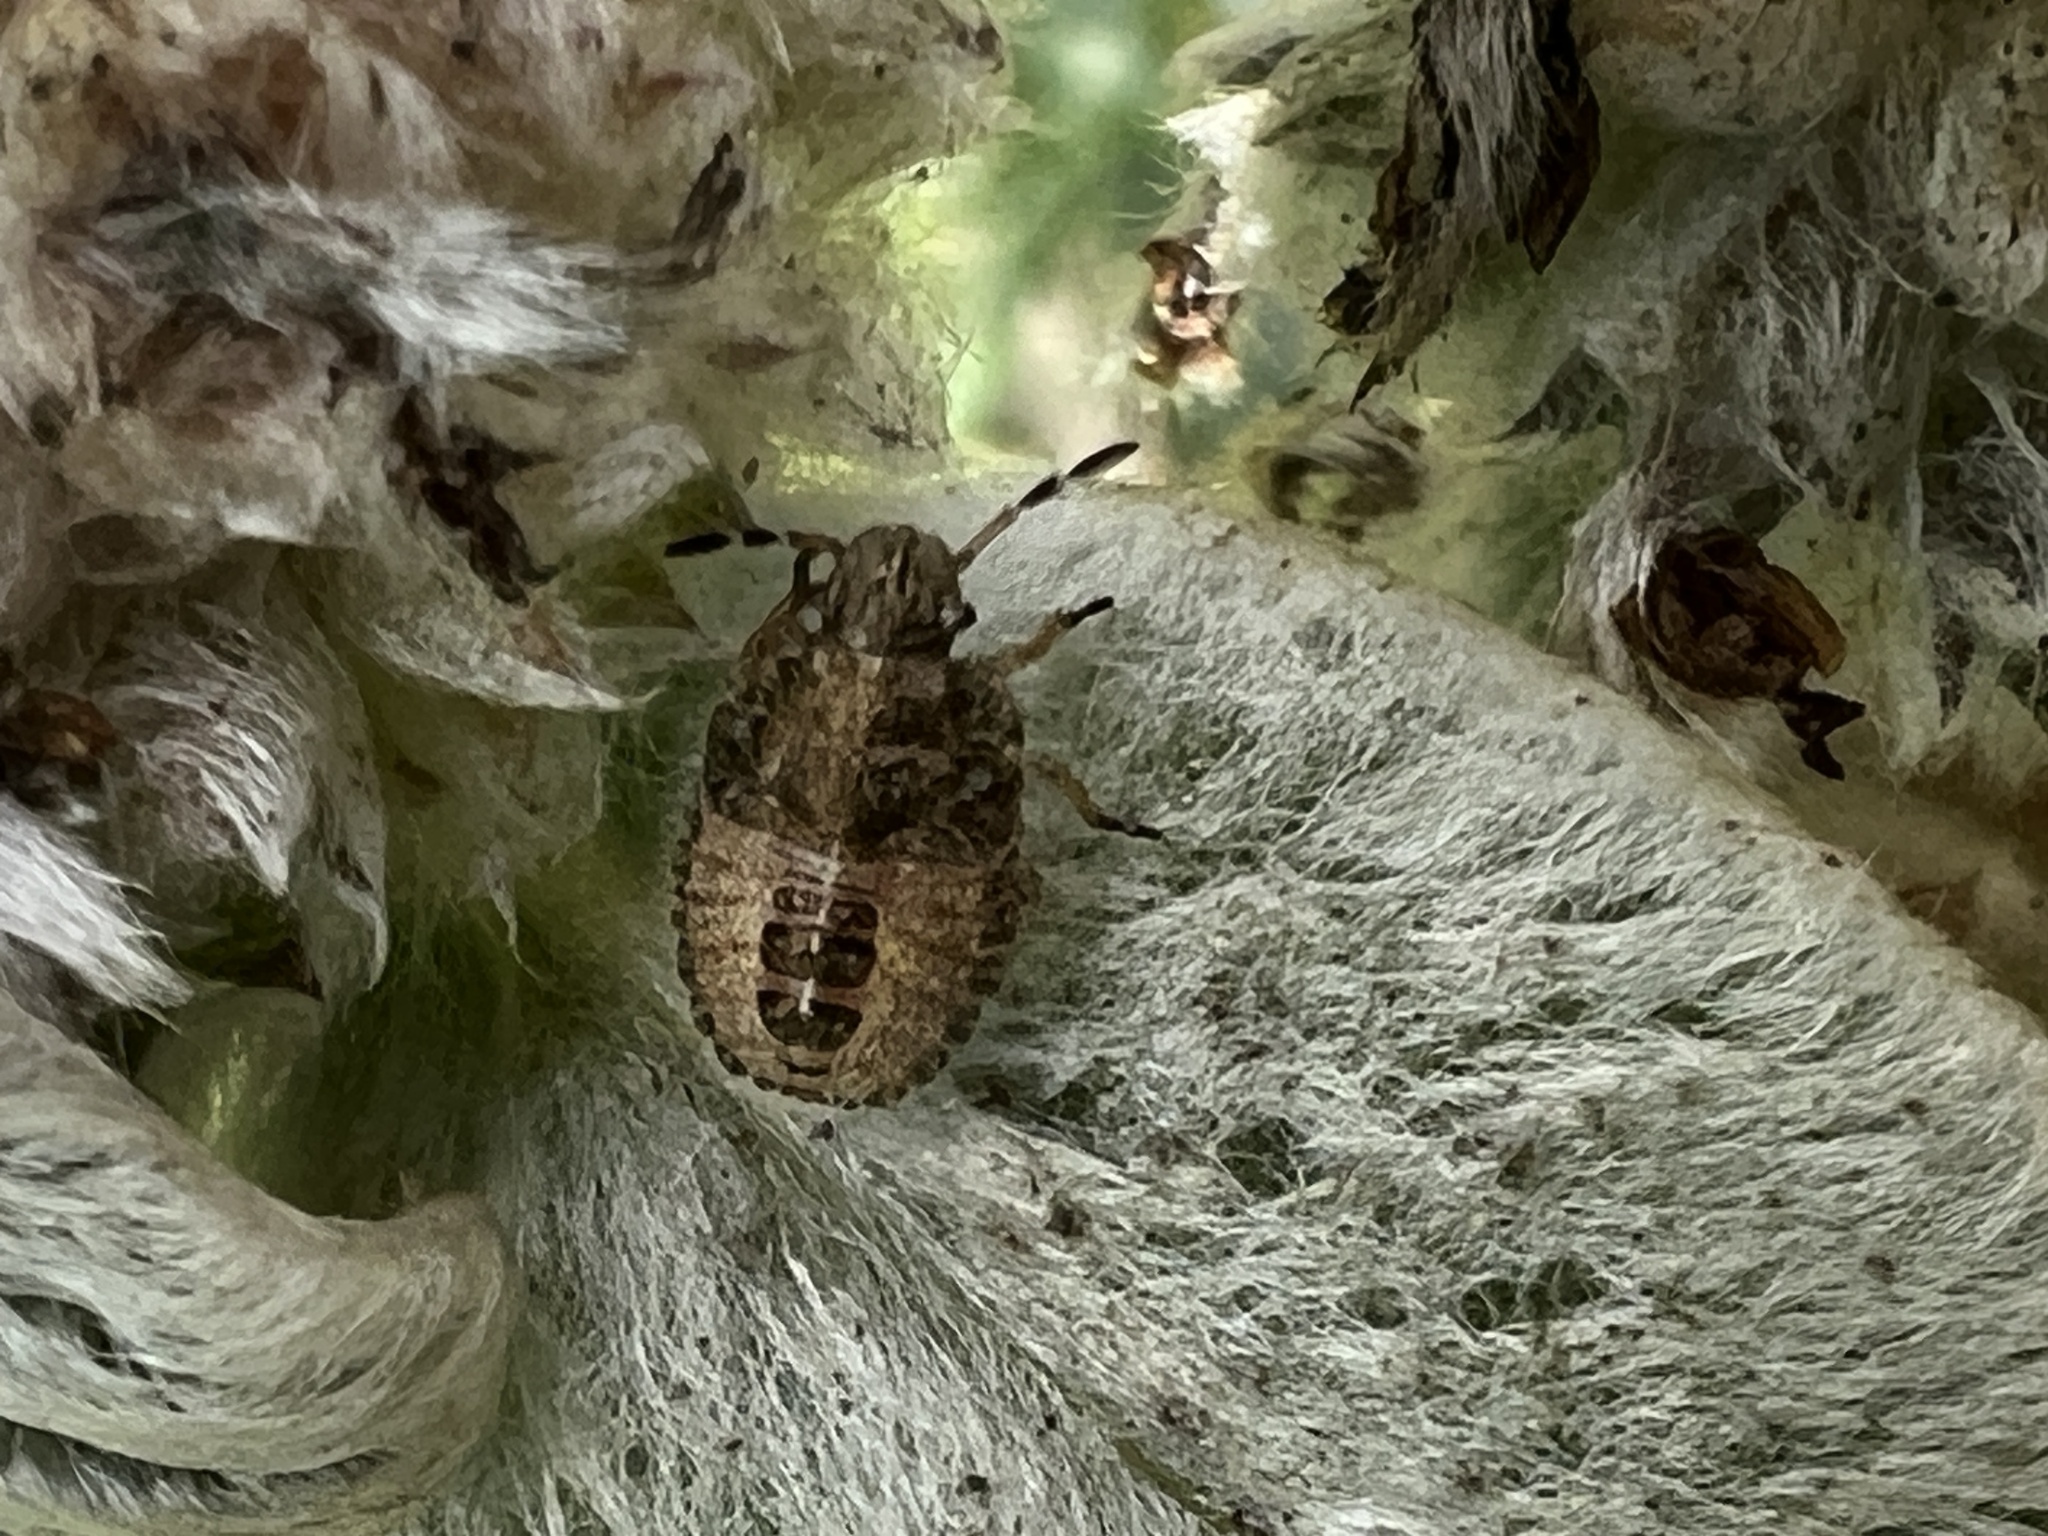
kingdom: Animalia
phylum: Arthropoda
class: Insecta
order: Hemiptera
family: Pentatomidae
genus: Dolycoris
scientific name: Dolycoris baccarum
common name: Sloe bug
